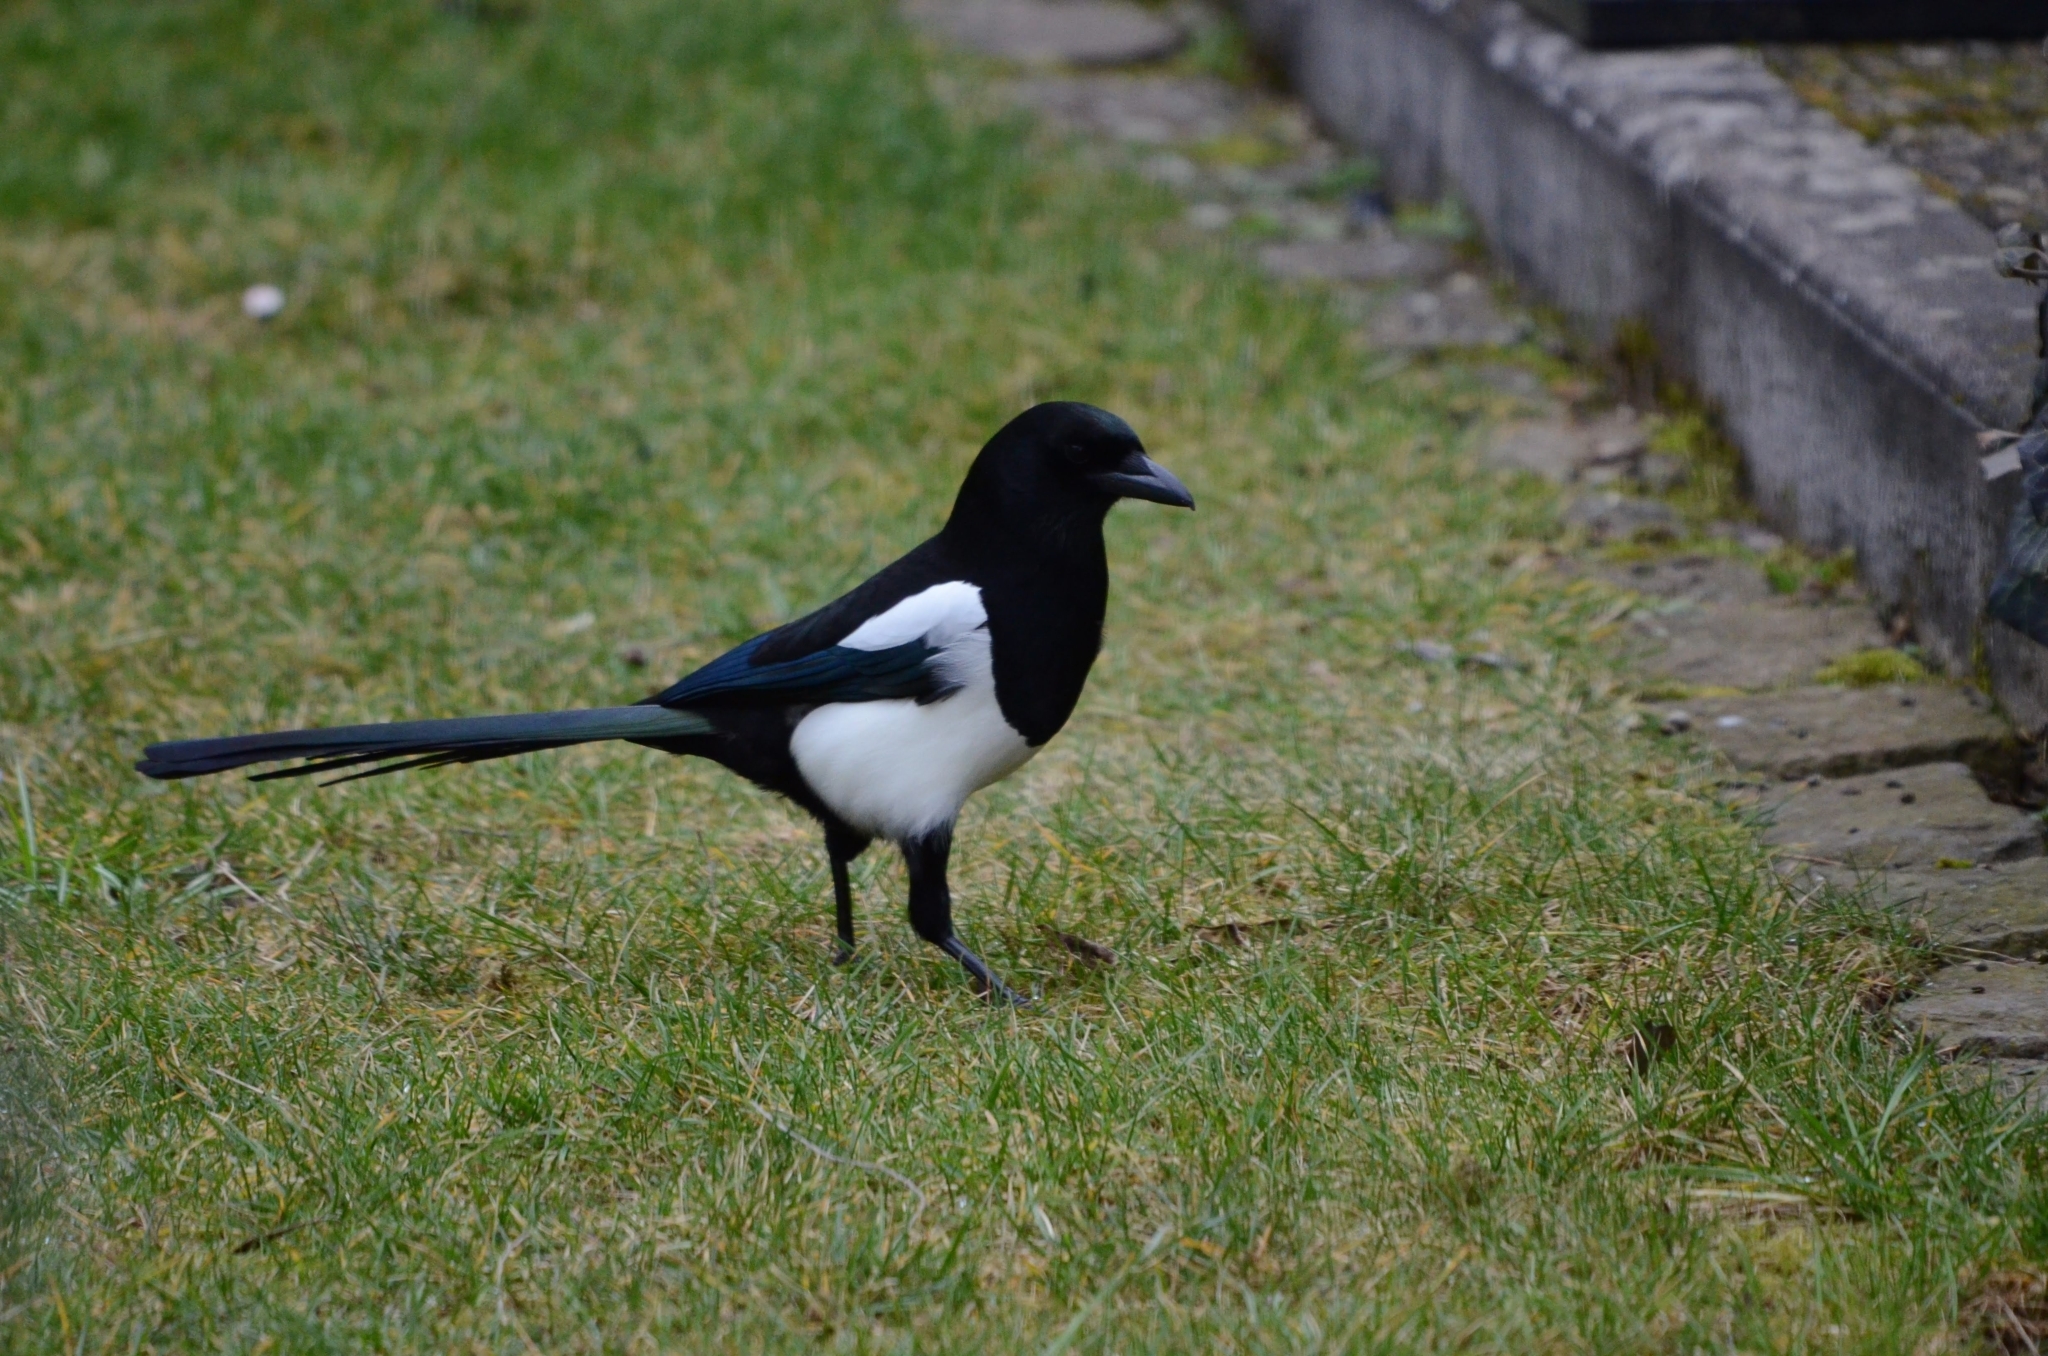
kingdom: Animalia
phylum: Chordata
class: Aves
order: Passeriformes
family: Corvidae
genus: Pica
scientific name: Pica pica
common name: Eurasian magpie
